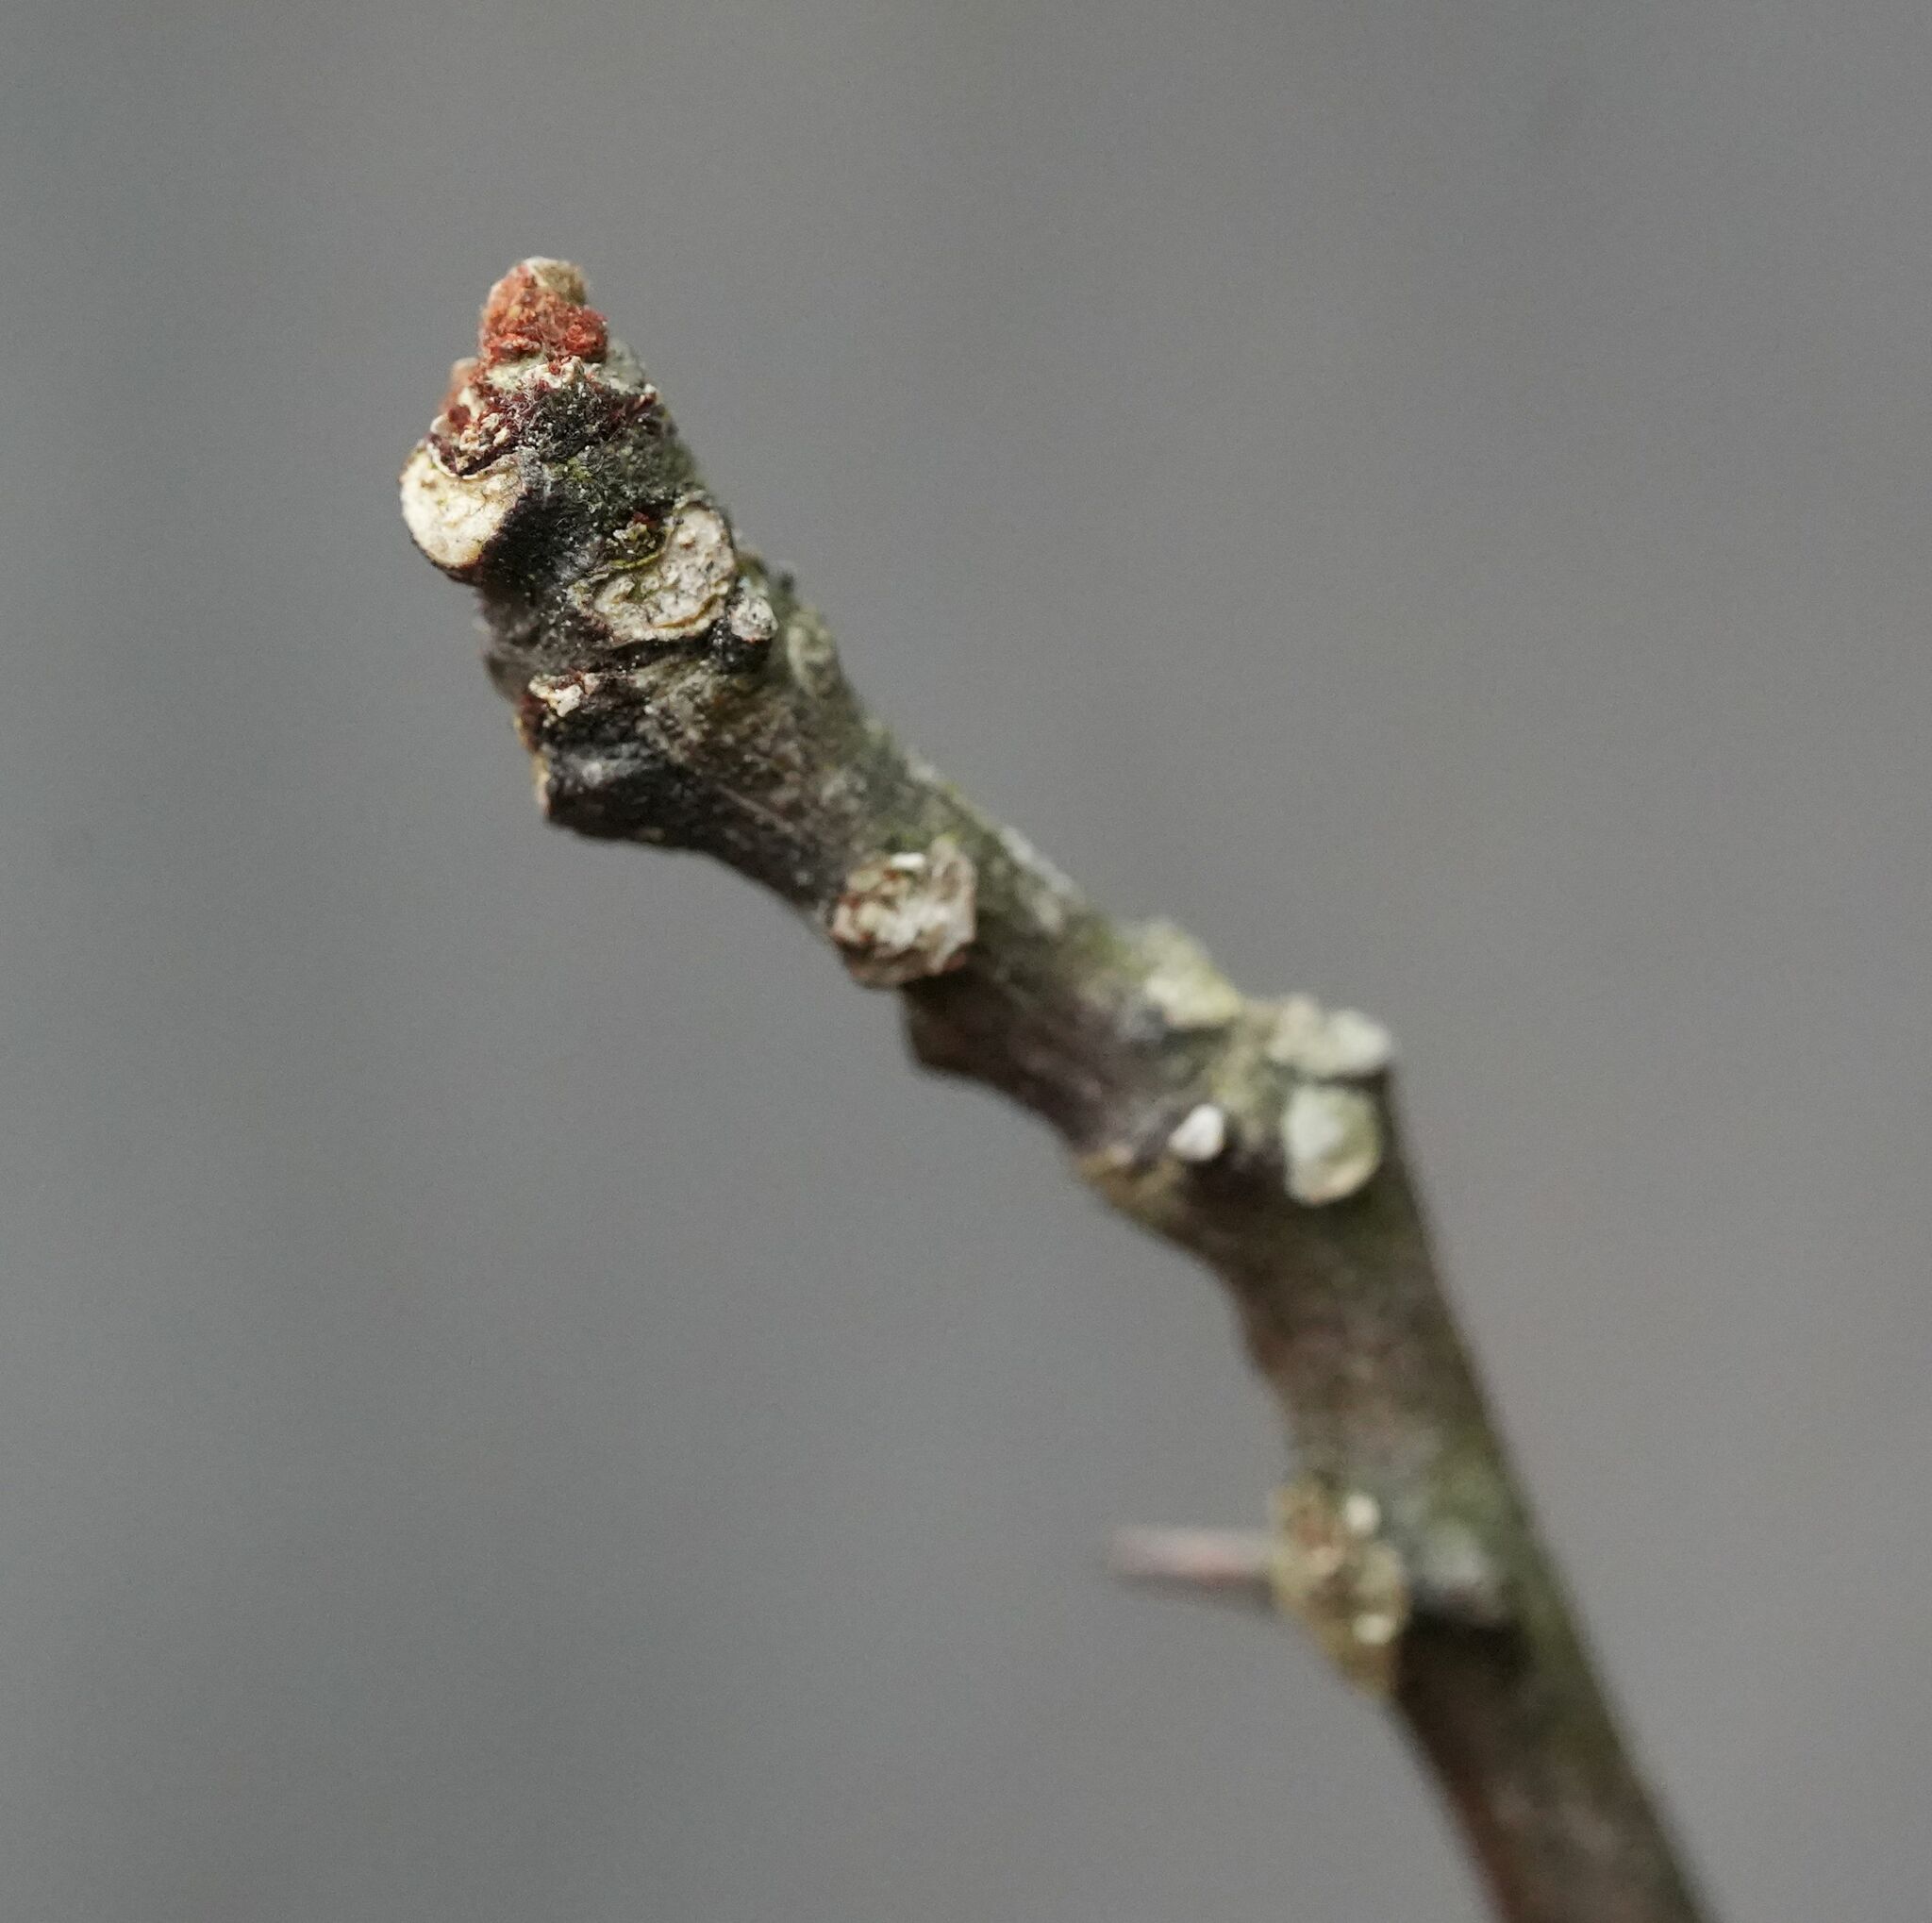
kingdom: Plantae
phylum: Tracheophyta
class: Magnoliopsida
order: Sapindales
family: Rutaceae
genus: Zanthoxylum
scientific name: Zanthoxylum americanum
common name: Northern prickly-ash
